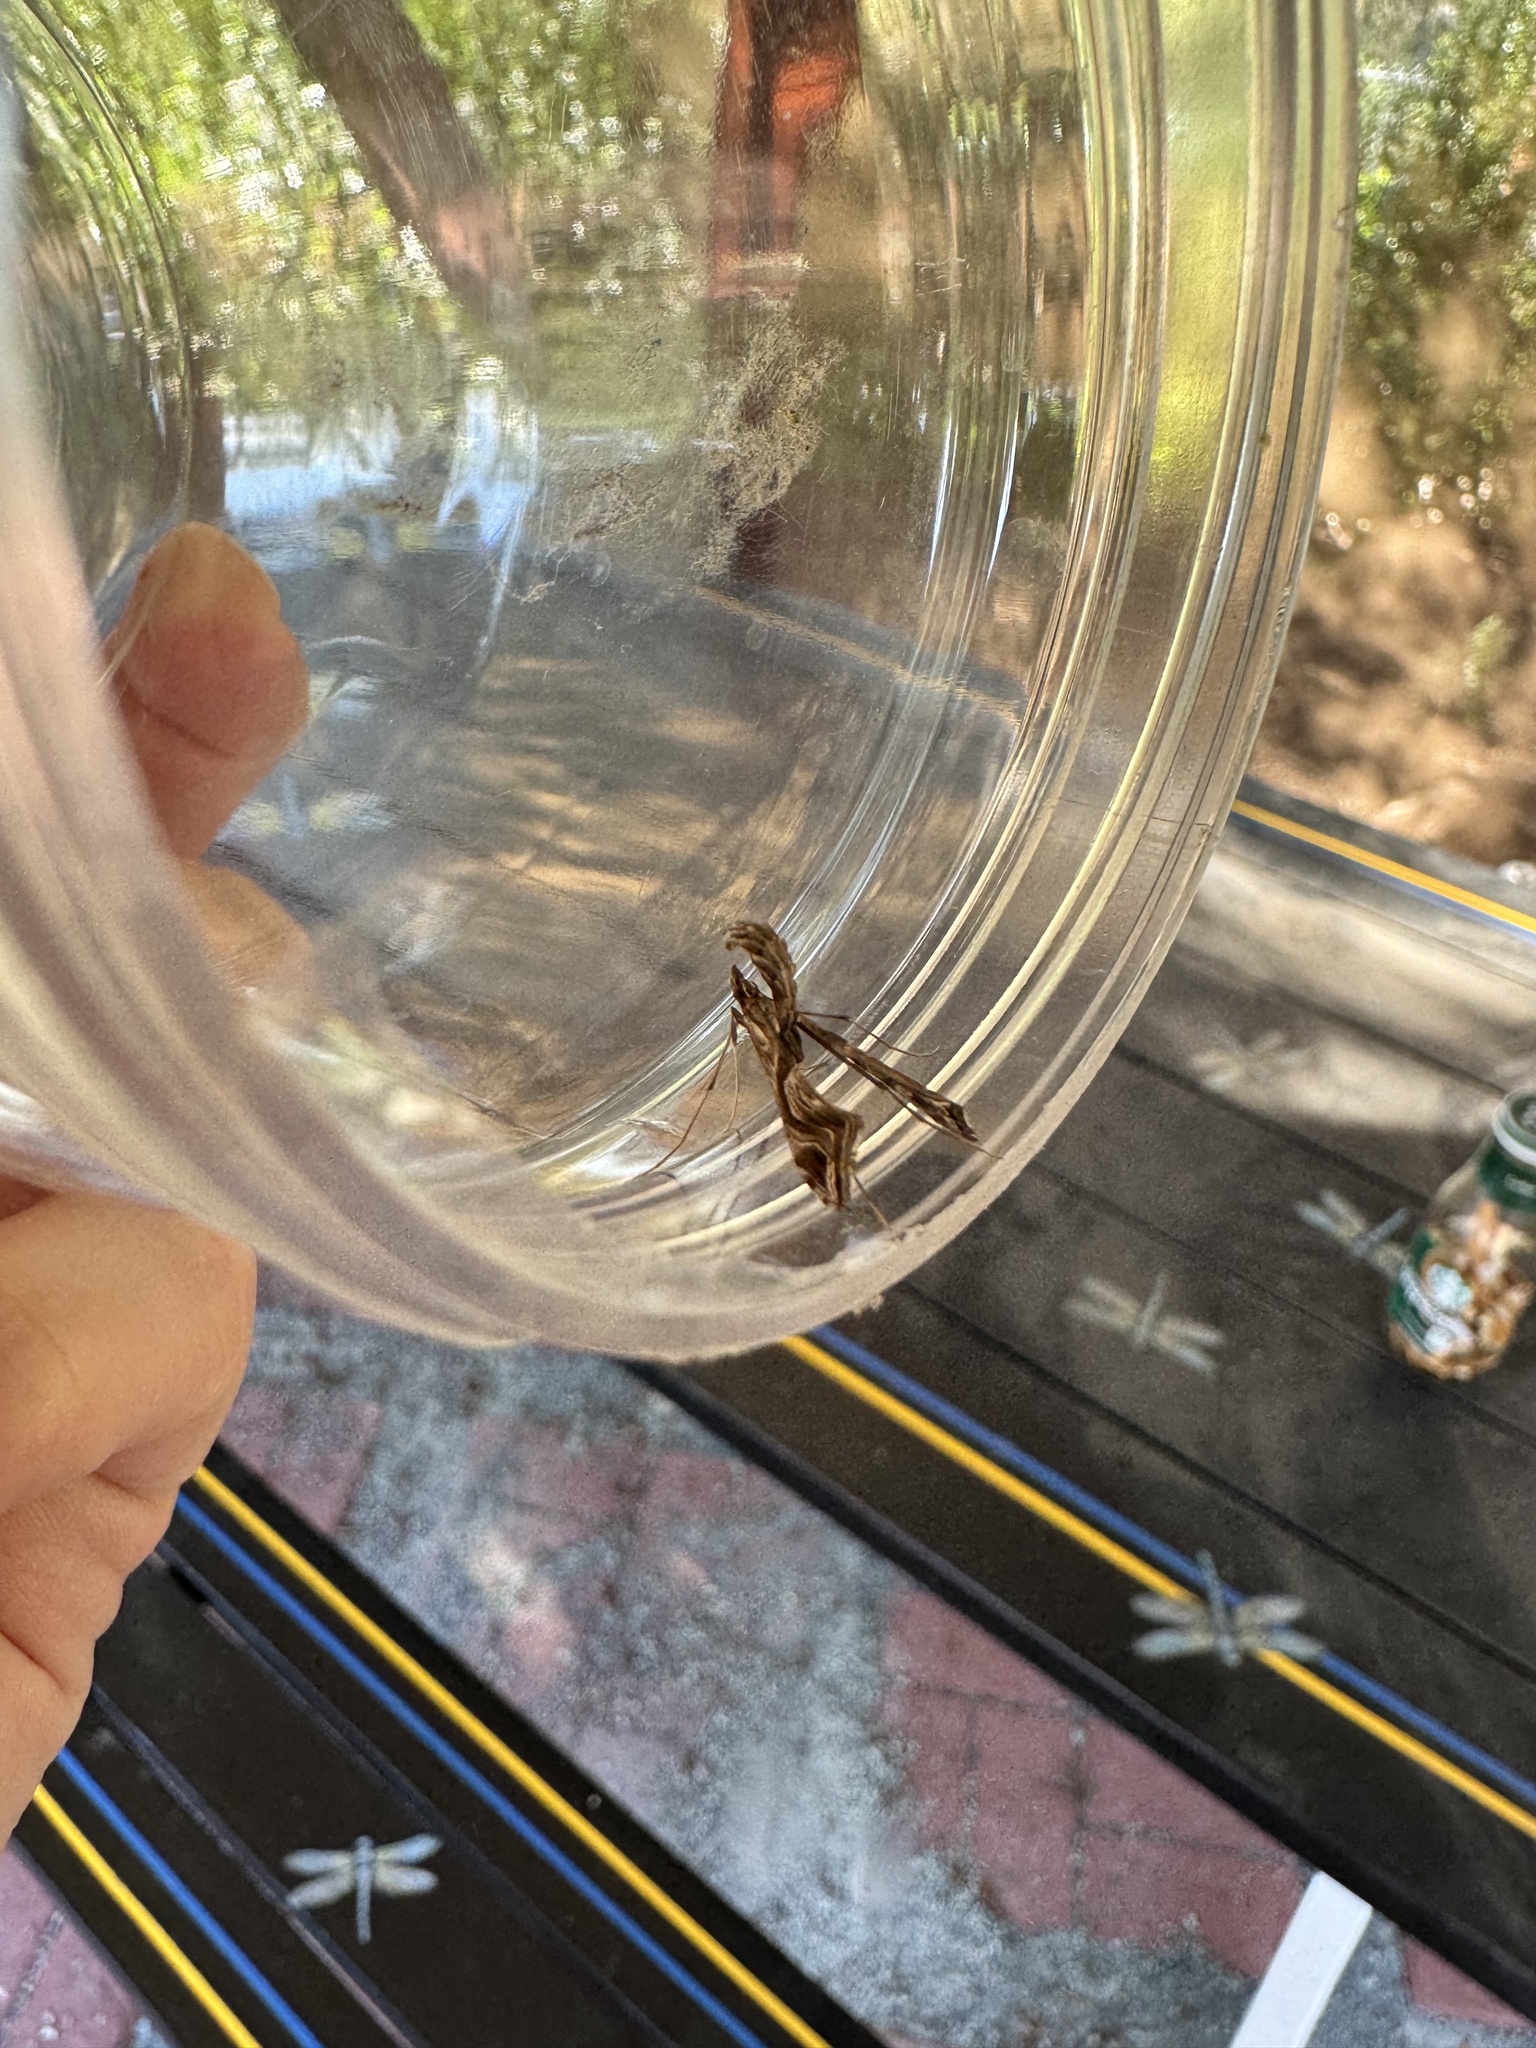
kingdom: Animalia
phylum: Arthropoda
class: Insecta
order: Lepidoptera
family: Crambidae
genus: Lineodes
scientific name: Lineodes integra
